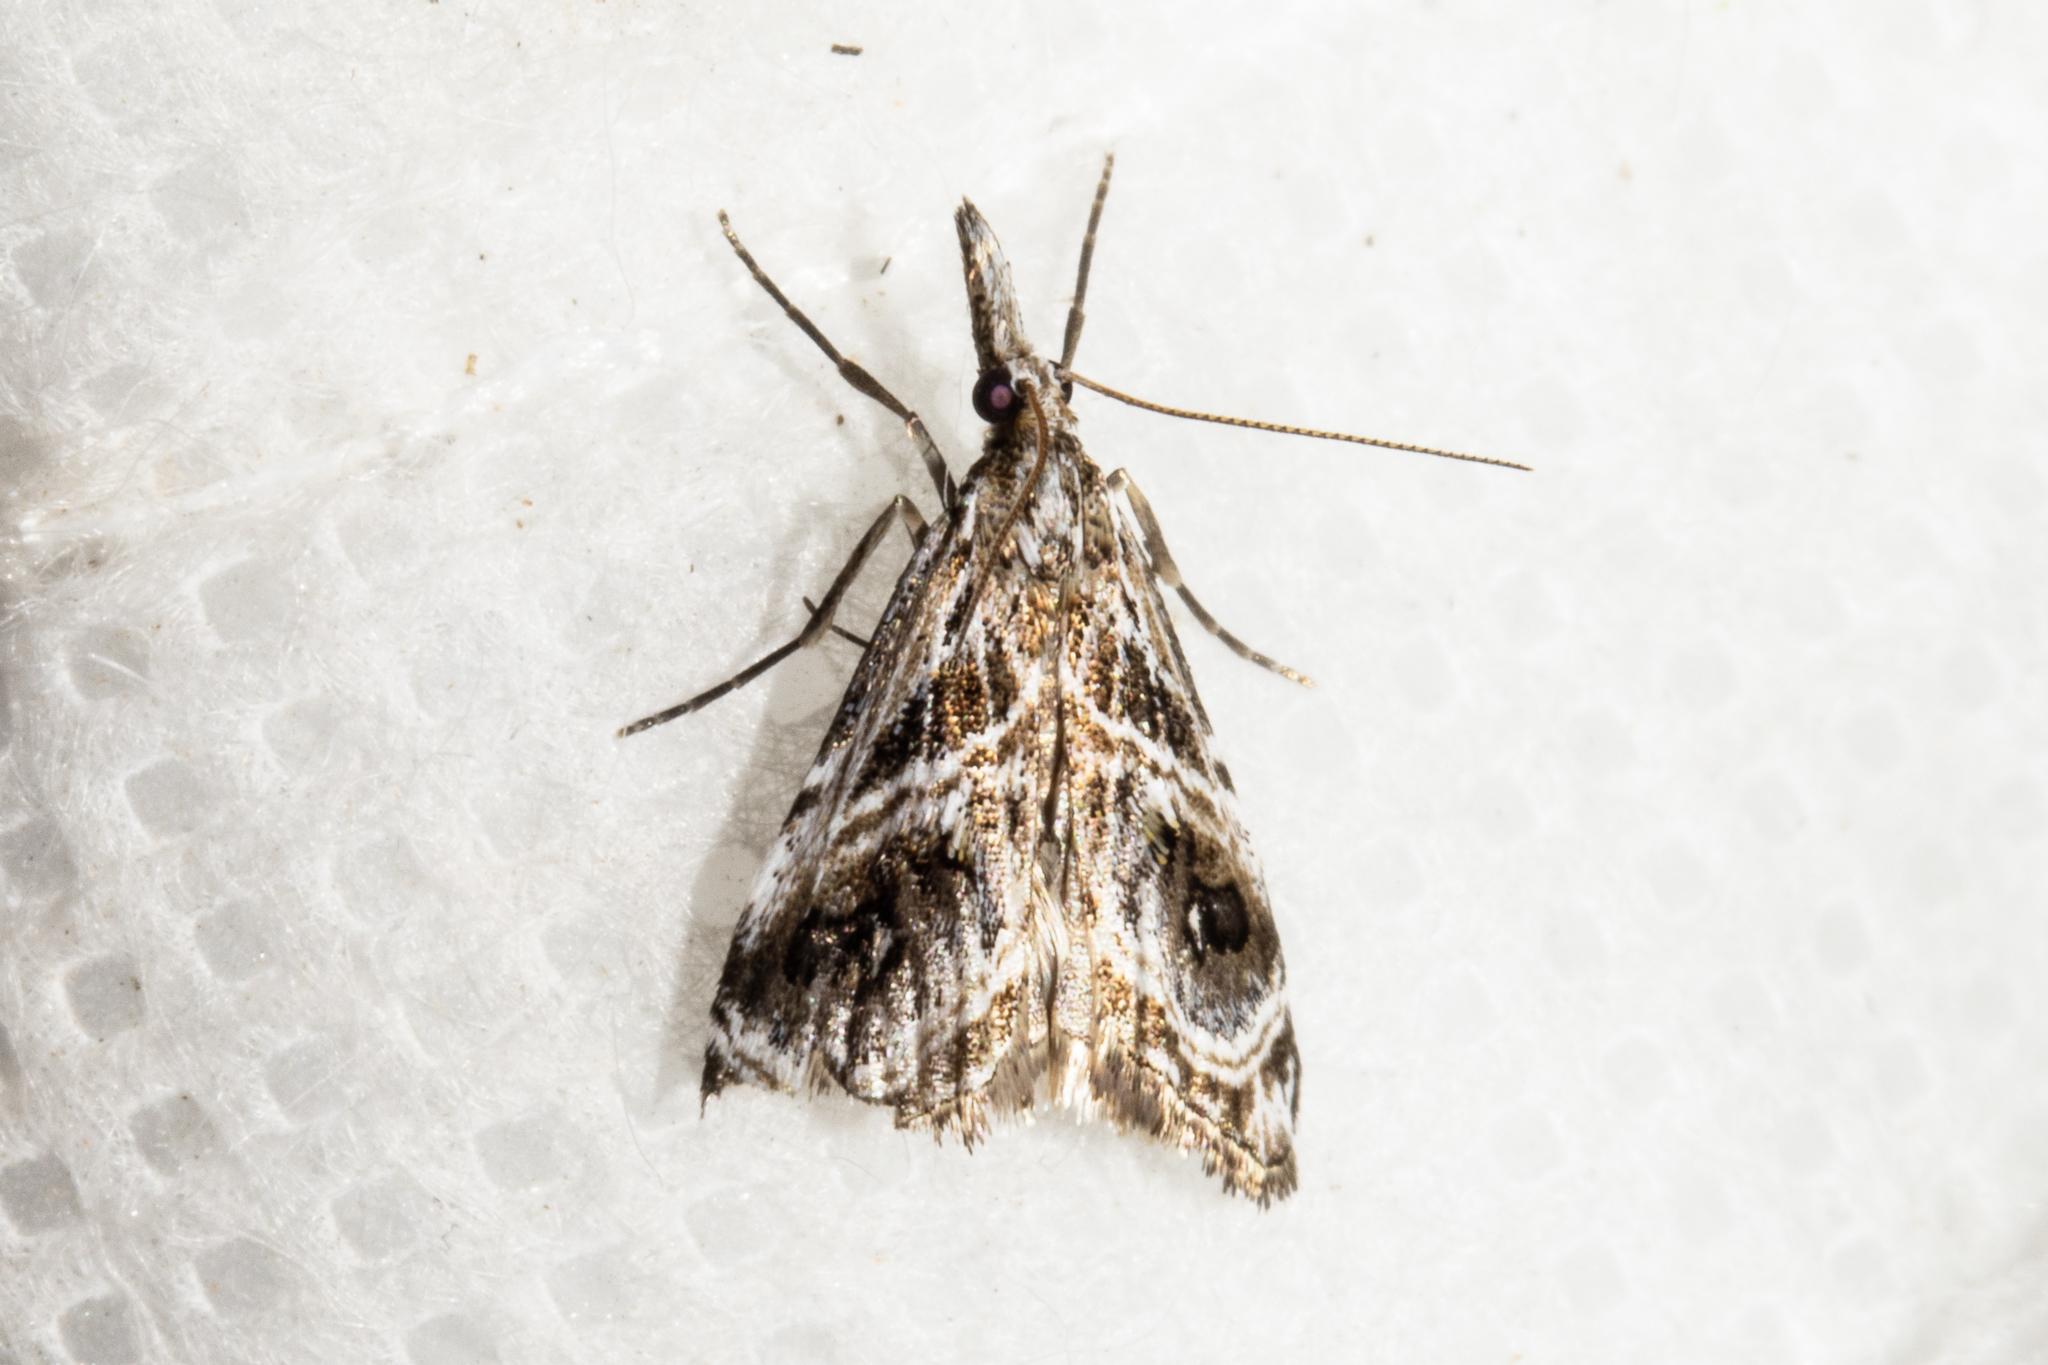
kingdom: Animalia
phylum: Arthropoda
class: Insecta
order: Lepidoptera
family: Crambidae
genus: Gadira
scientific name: Gadira acerella
